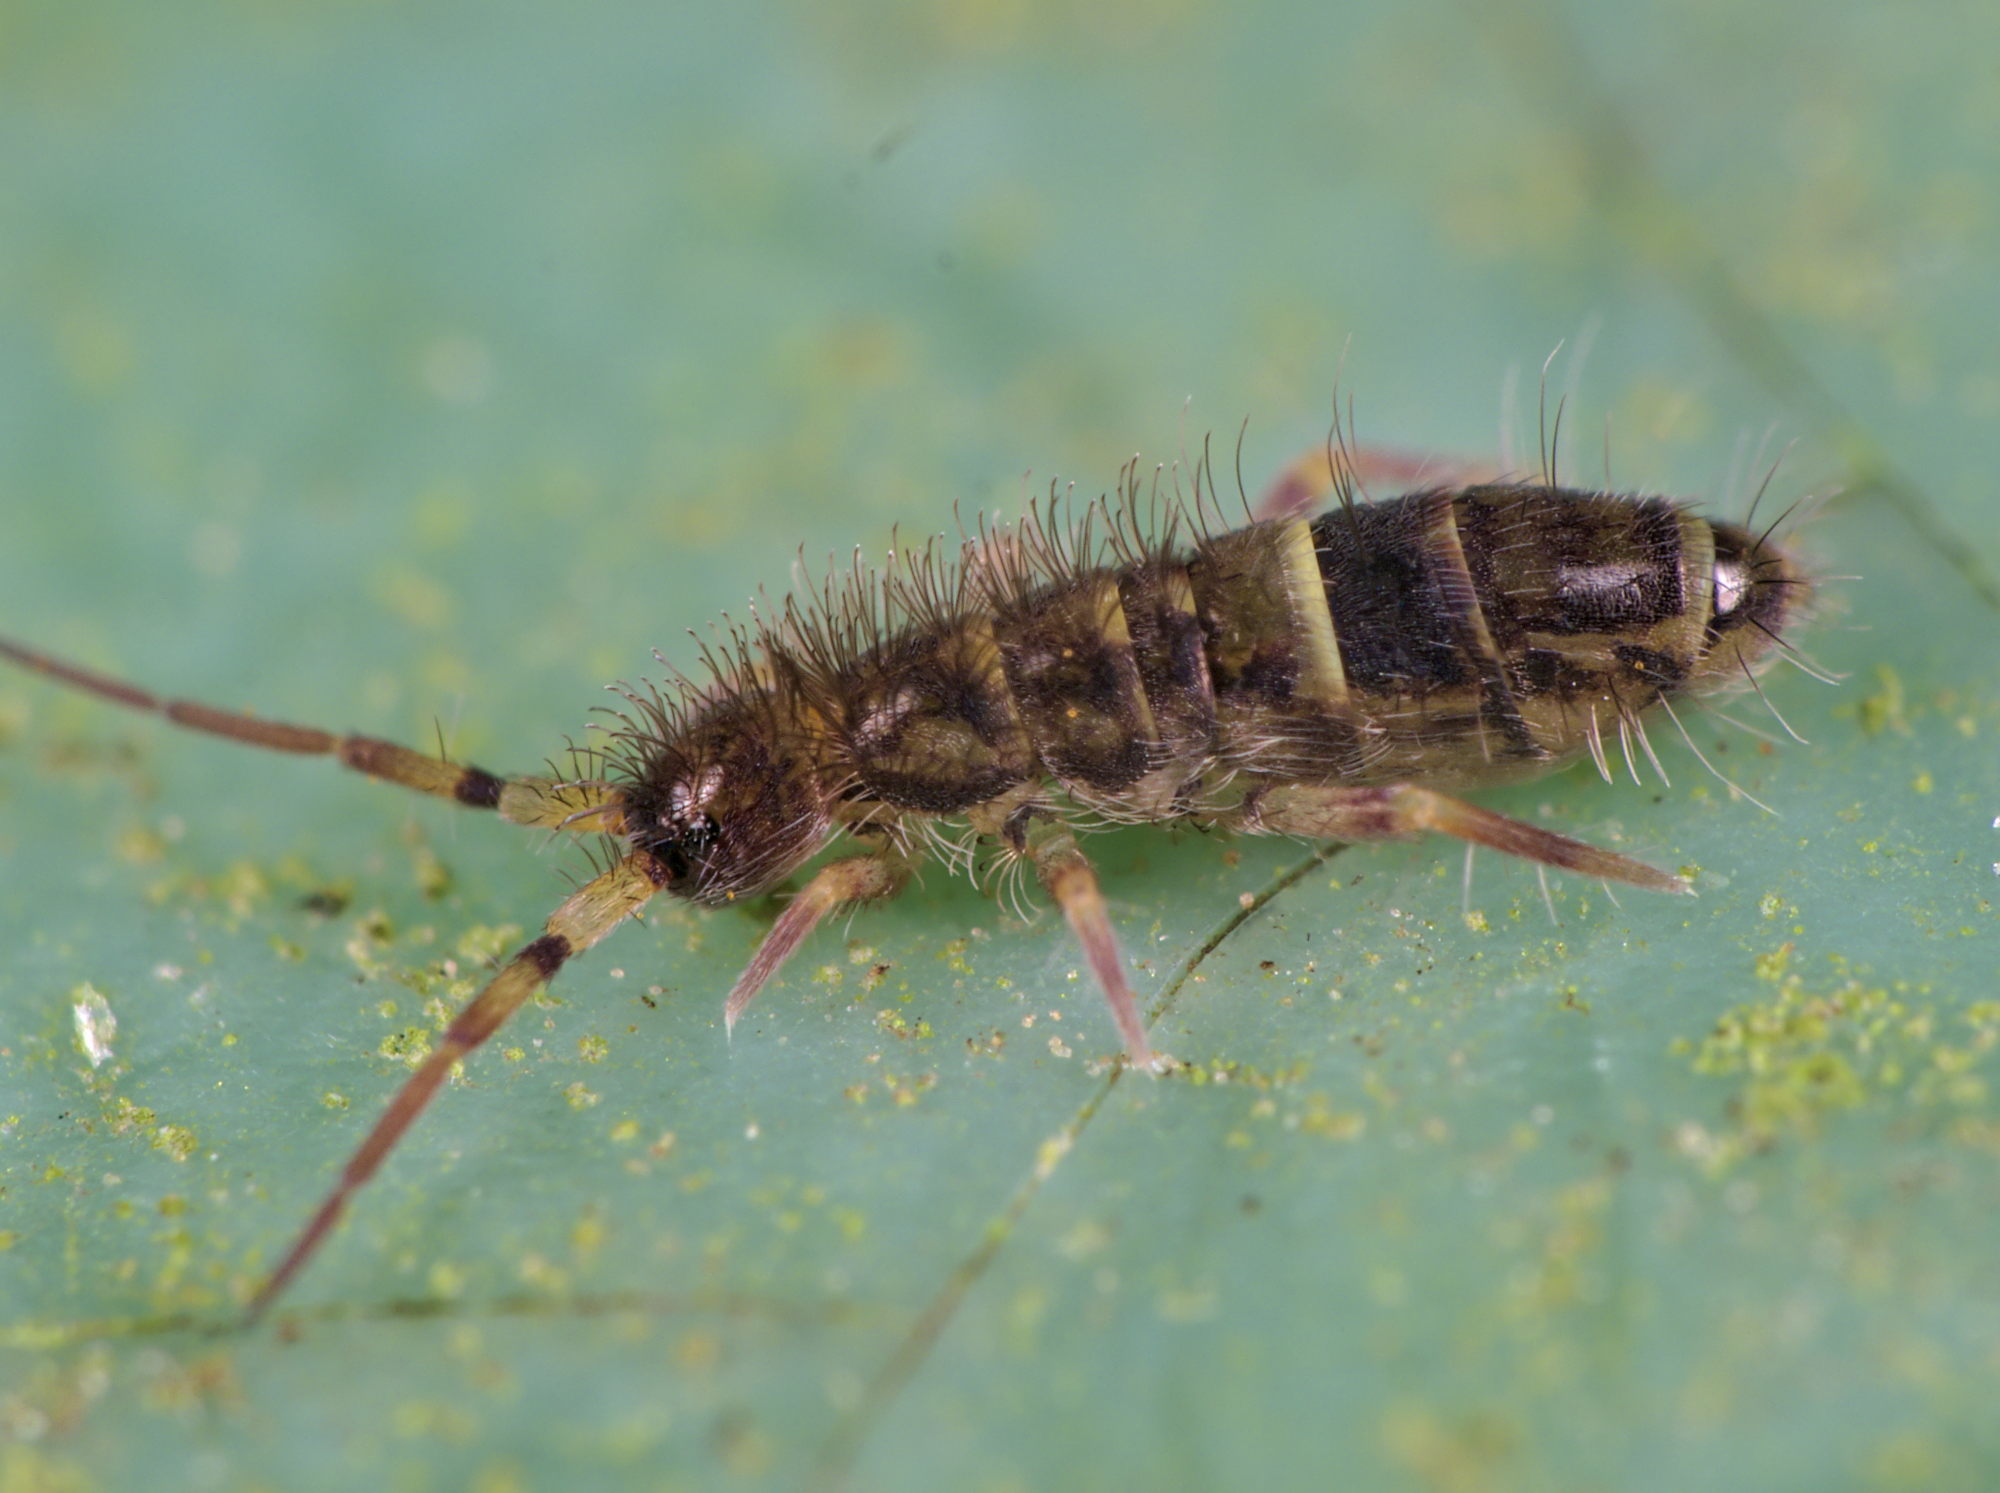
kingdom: Animalia
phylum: Arthropoda
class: Collembola
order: Entomobryomorpha
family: Orchesellidae
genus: Orchesella
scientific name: Orchesella cincta
